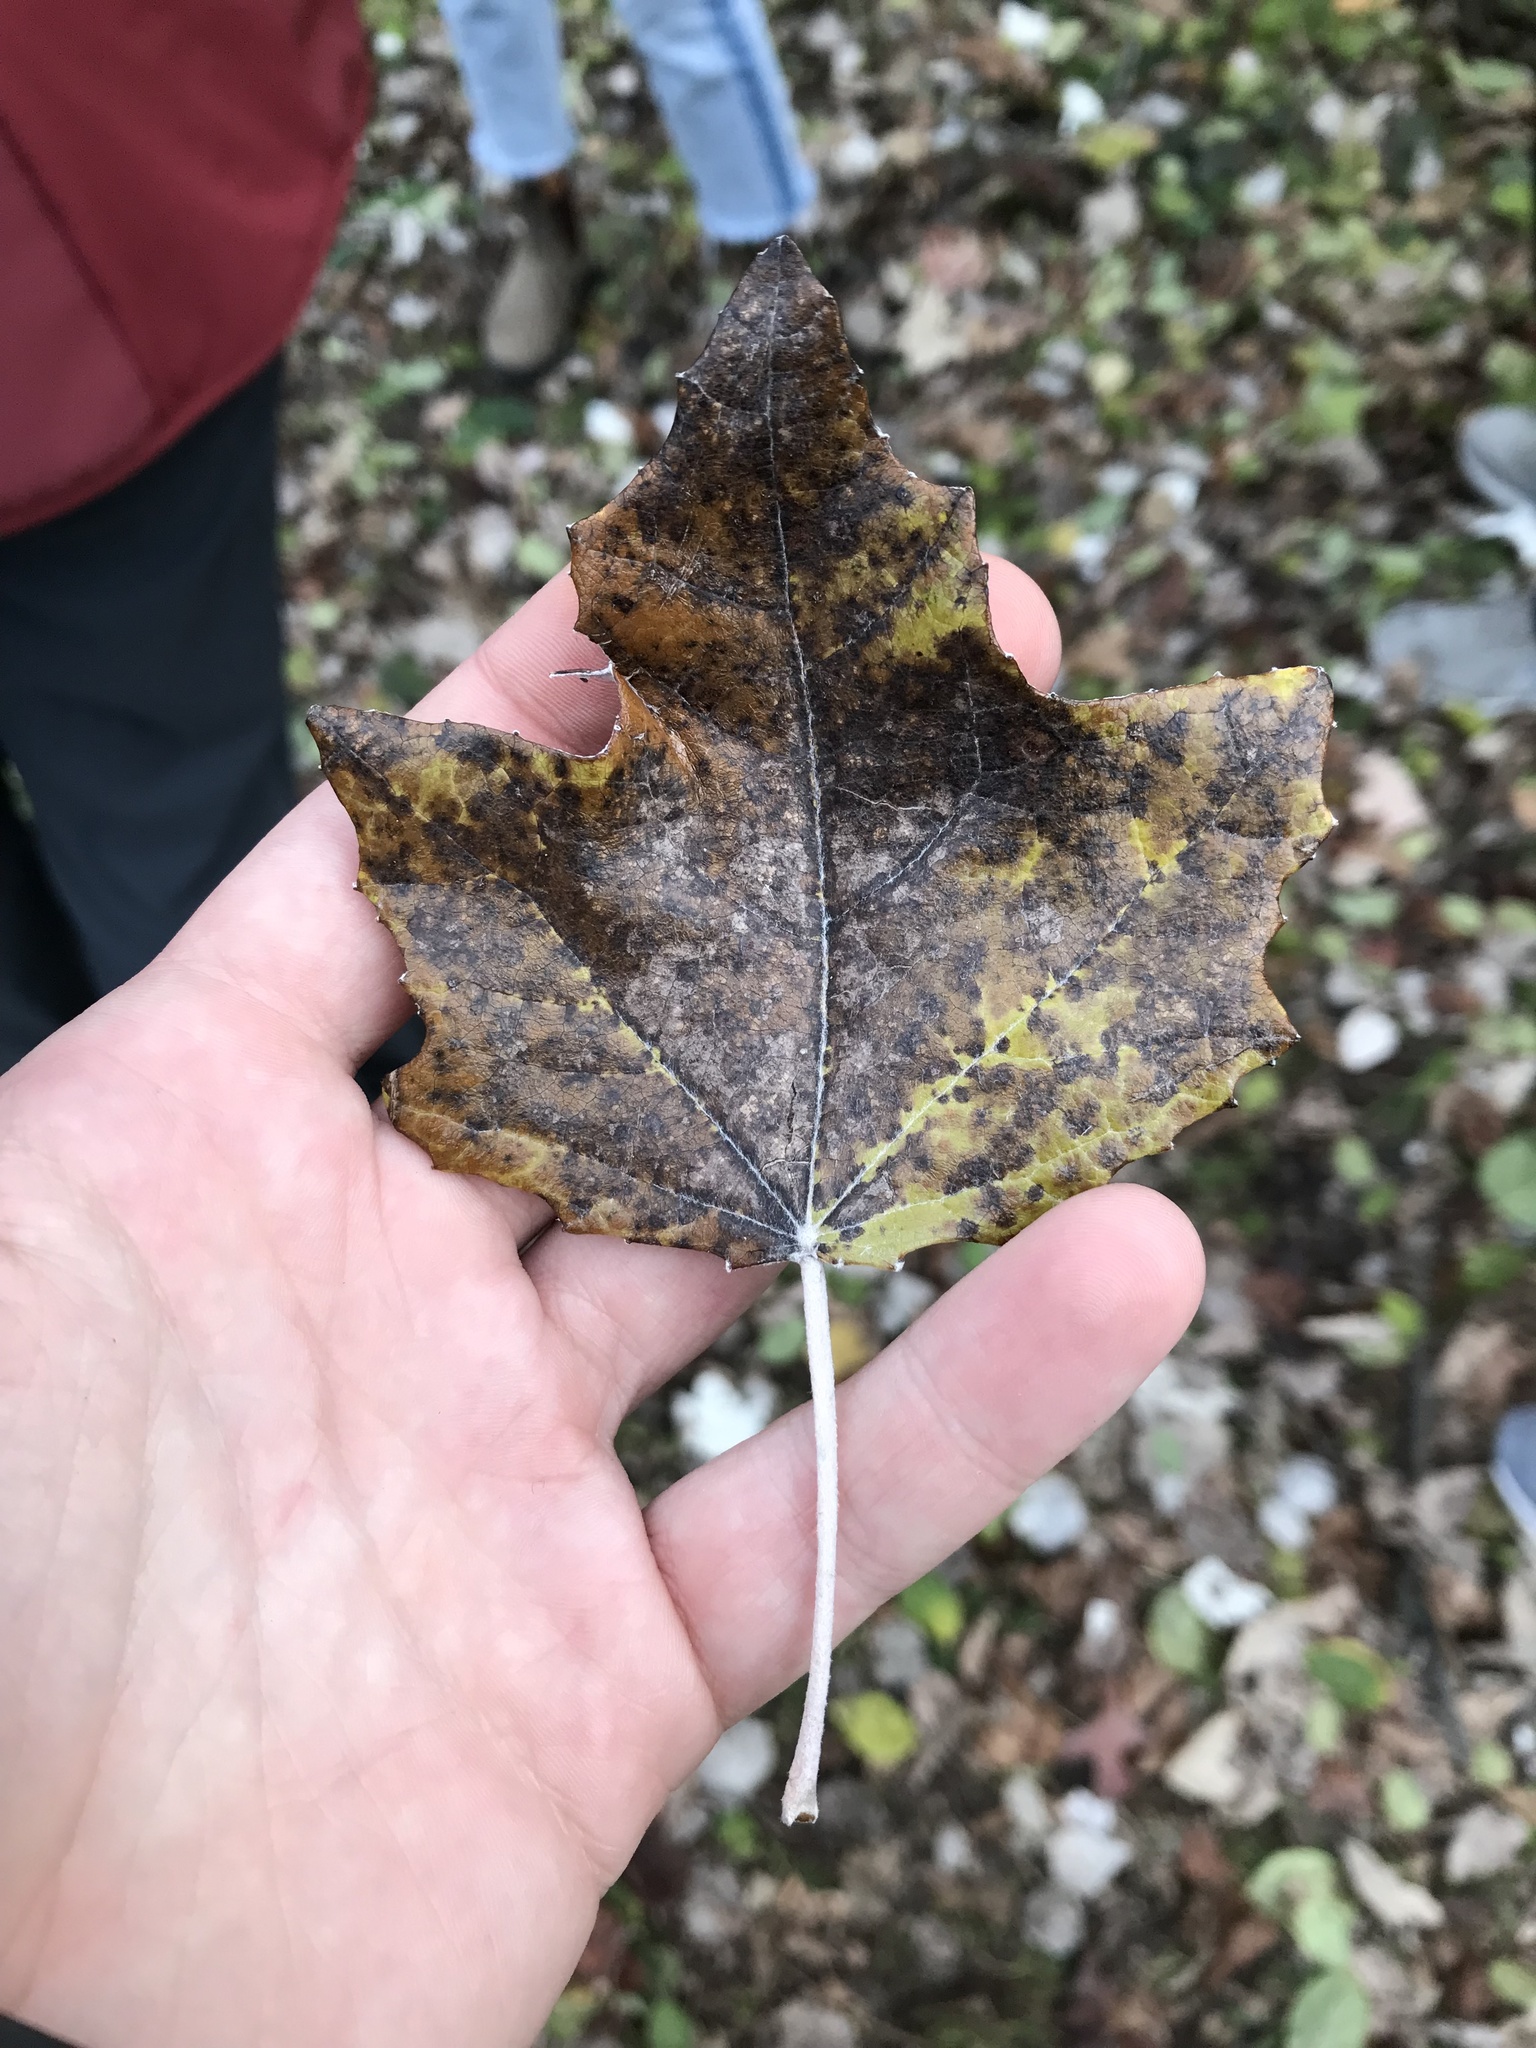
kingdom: Plantae
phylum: Tracheophyta
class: Magnoliopsida
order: Malpighiales
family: Salicaceae
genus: Populus
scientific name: Populus alba
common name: White poplar
